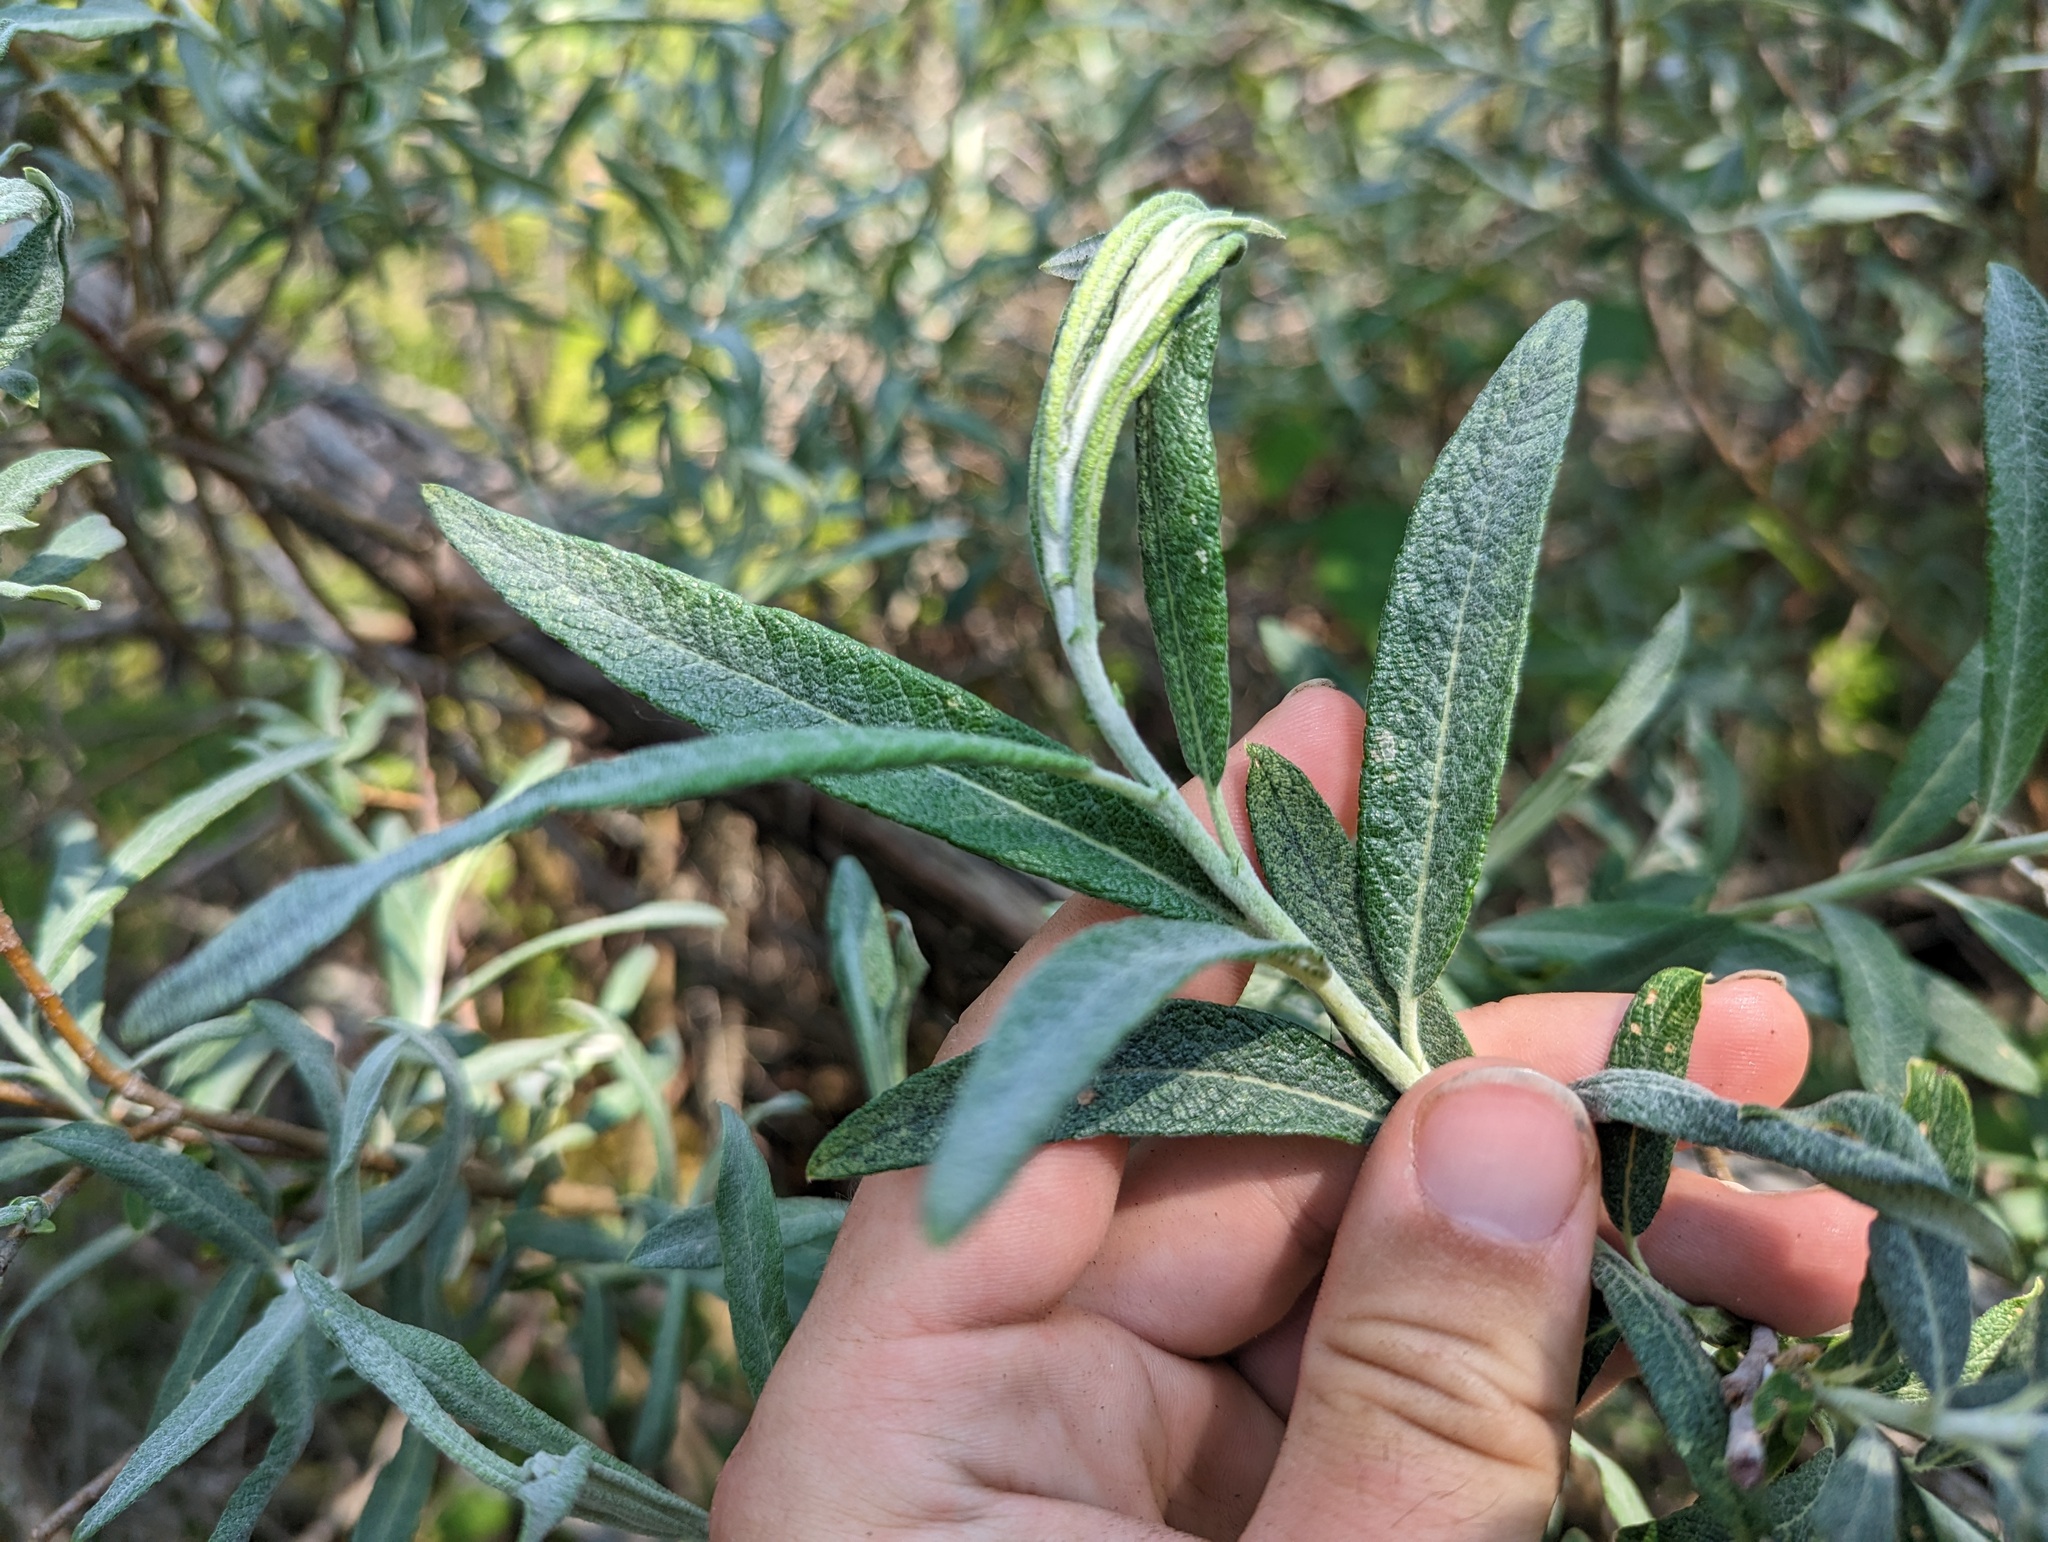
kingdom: Plantae
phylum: Tracheophyta
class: Magnoliopsida
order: Malpighiales
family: Salicaceae
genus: Salix
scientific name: Salix candida
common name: Hoary willow
